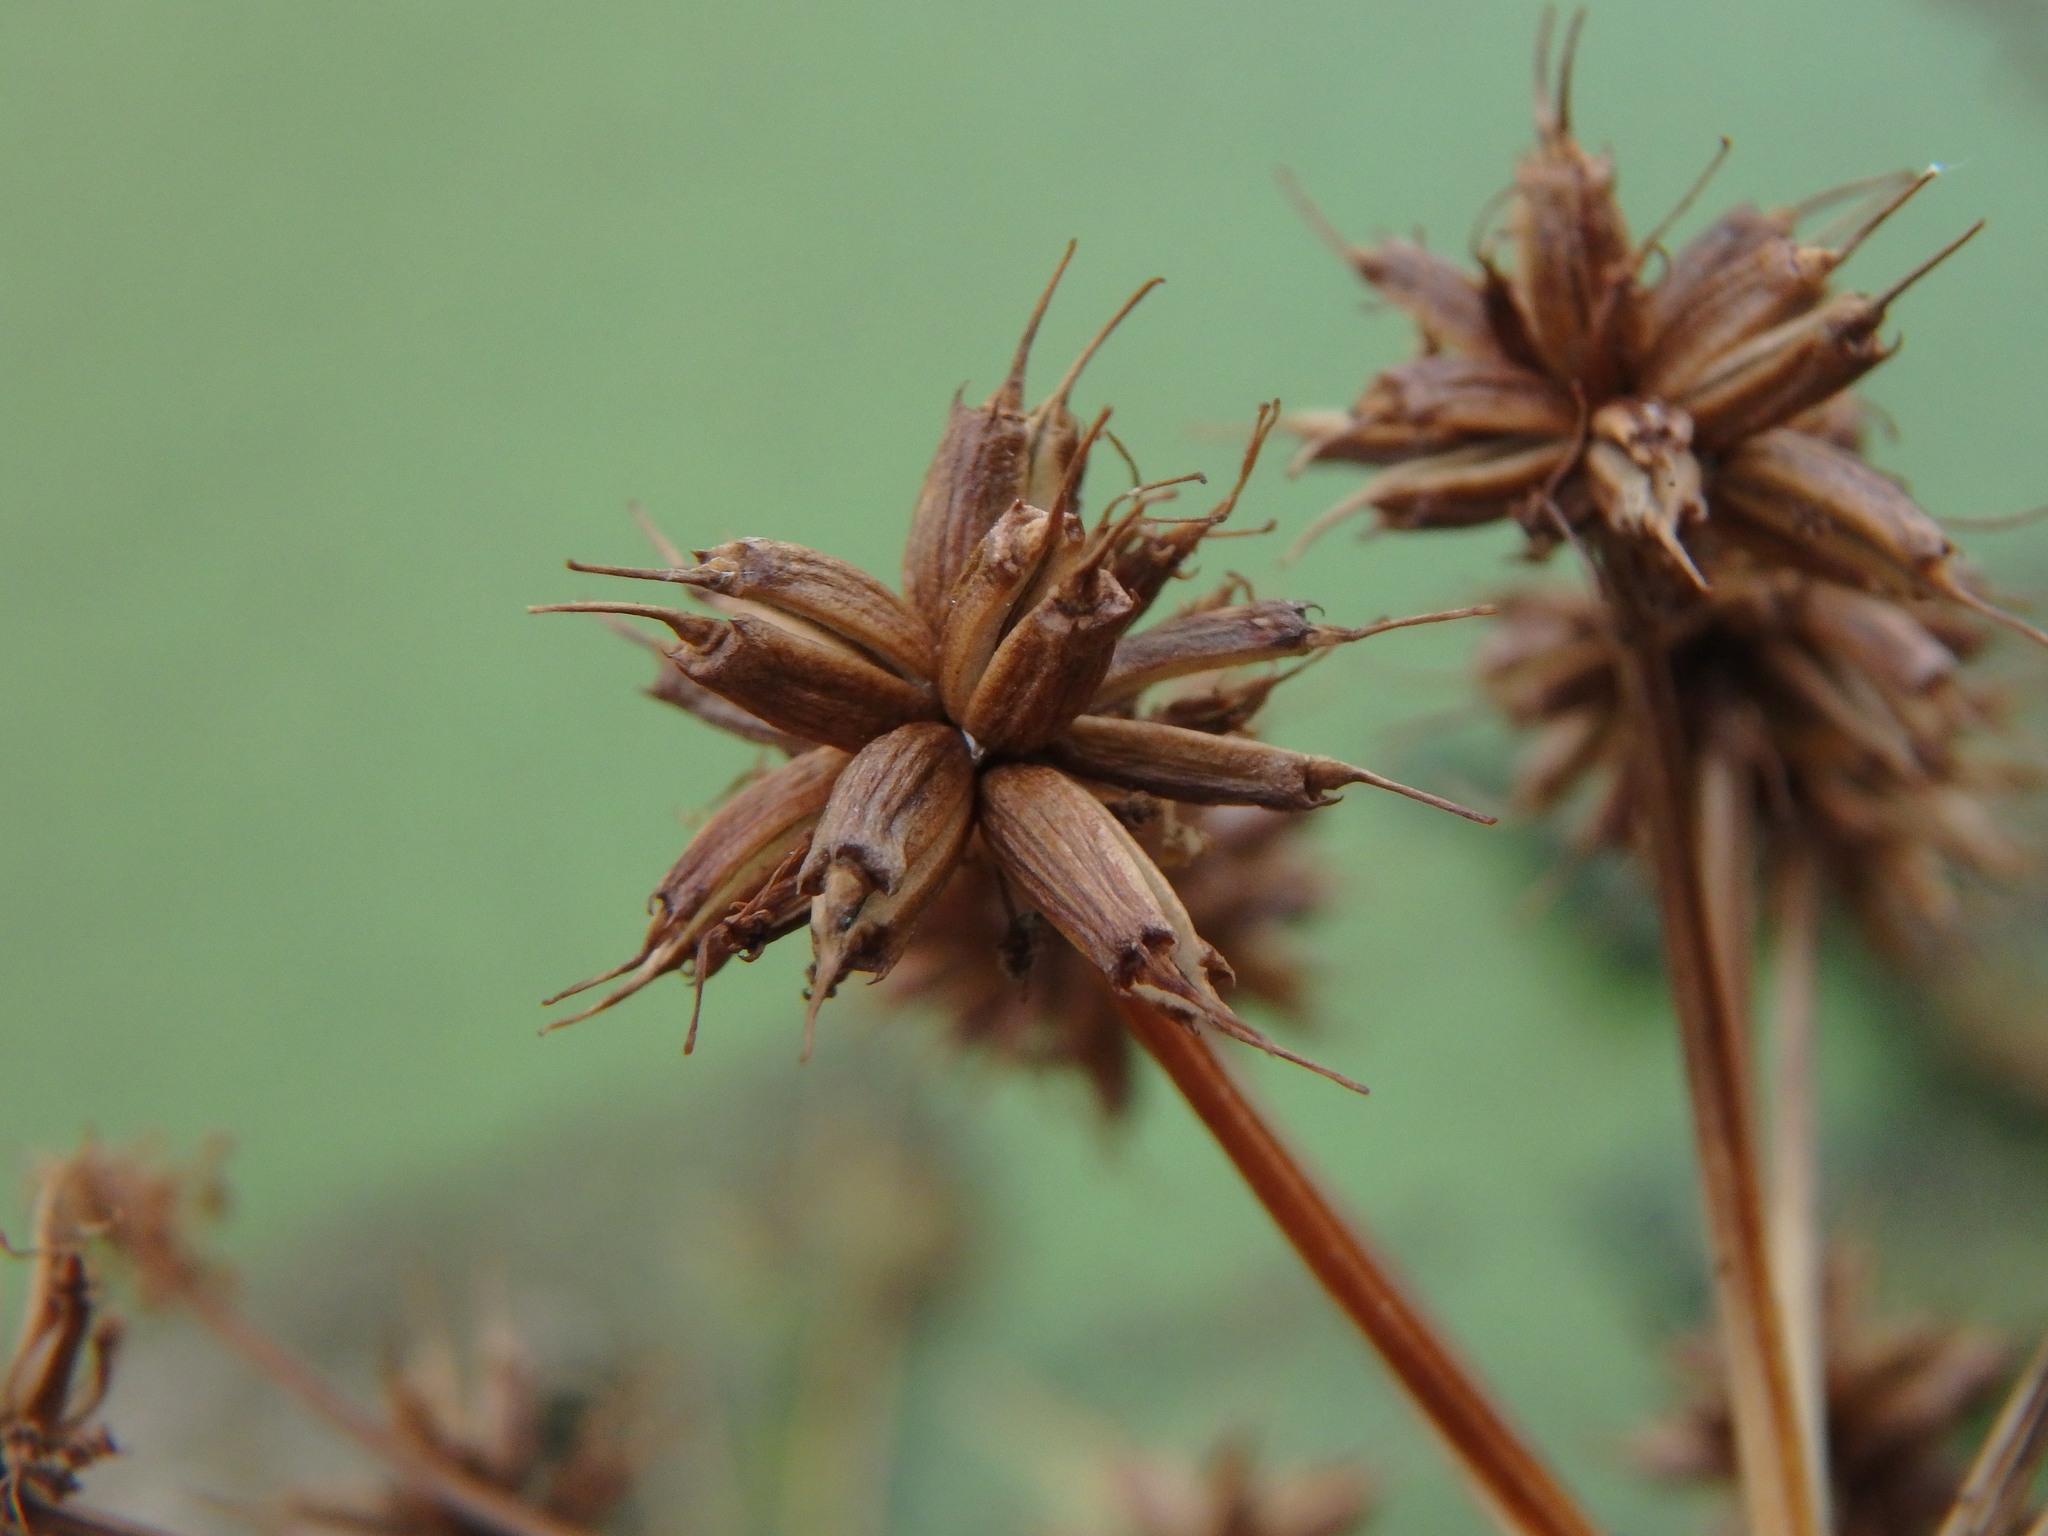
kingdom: Plantae
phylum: Tracheophyta
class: Magnoliopsida
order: Apiales
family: Apiaceae
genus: Oenanthe
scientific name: Oenanthe crocata
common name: Hemlock water-dropwort
